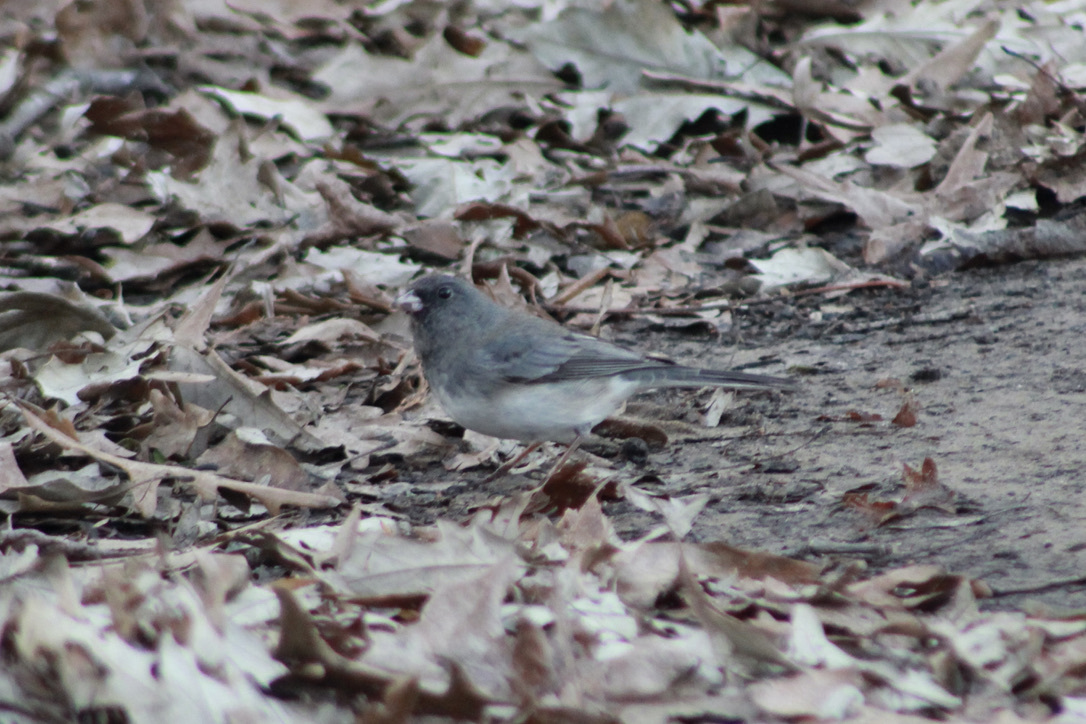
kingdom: Animalia
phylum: Chordata
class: Aves
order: Passeriformes
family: Passerellidae
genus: Junco
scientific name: Junco hyemalis
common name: Dark-eyed junco
